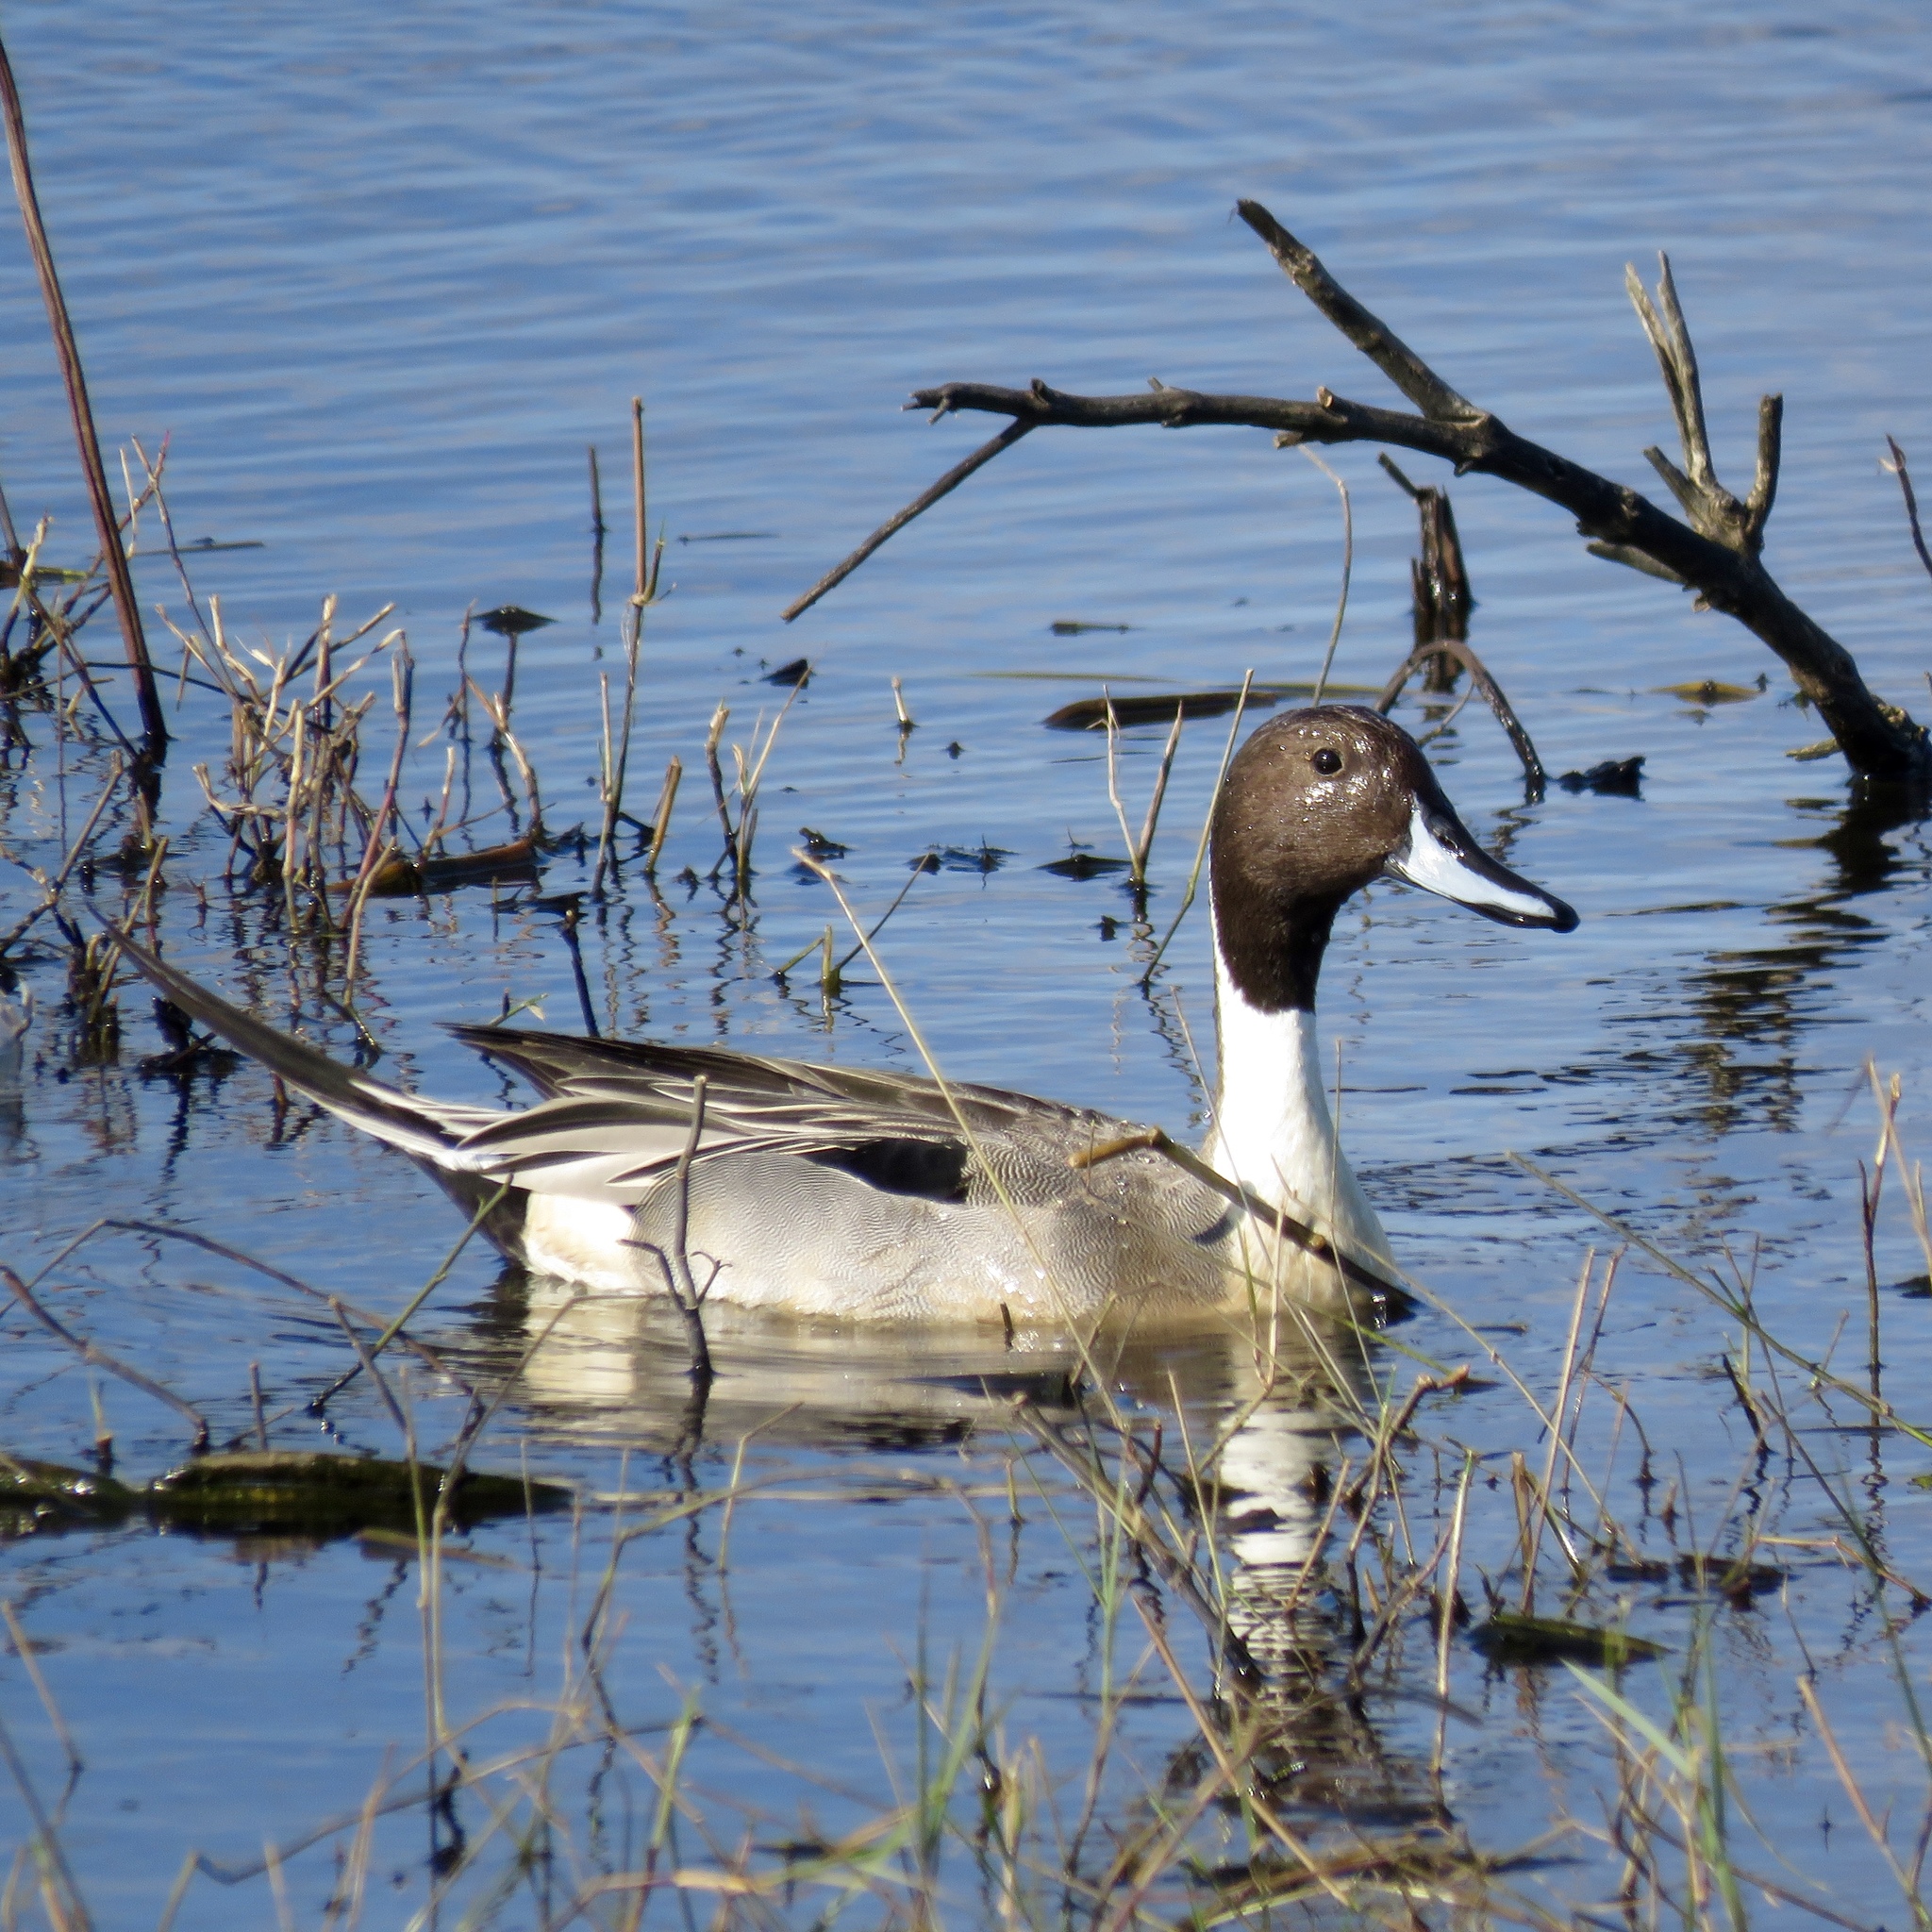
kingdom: Animalia
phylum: Chordata
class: Aves
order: Anseriformes
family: Anatidae
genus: Anas
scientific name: Anas acuta
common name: Northern pintail
